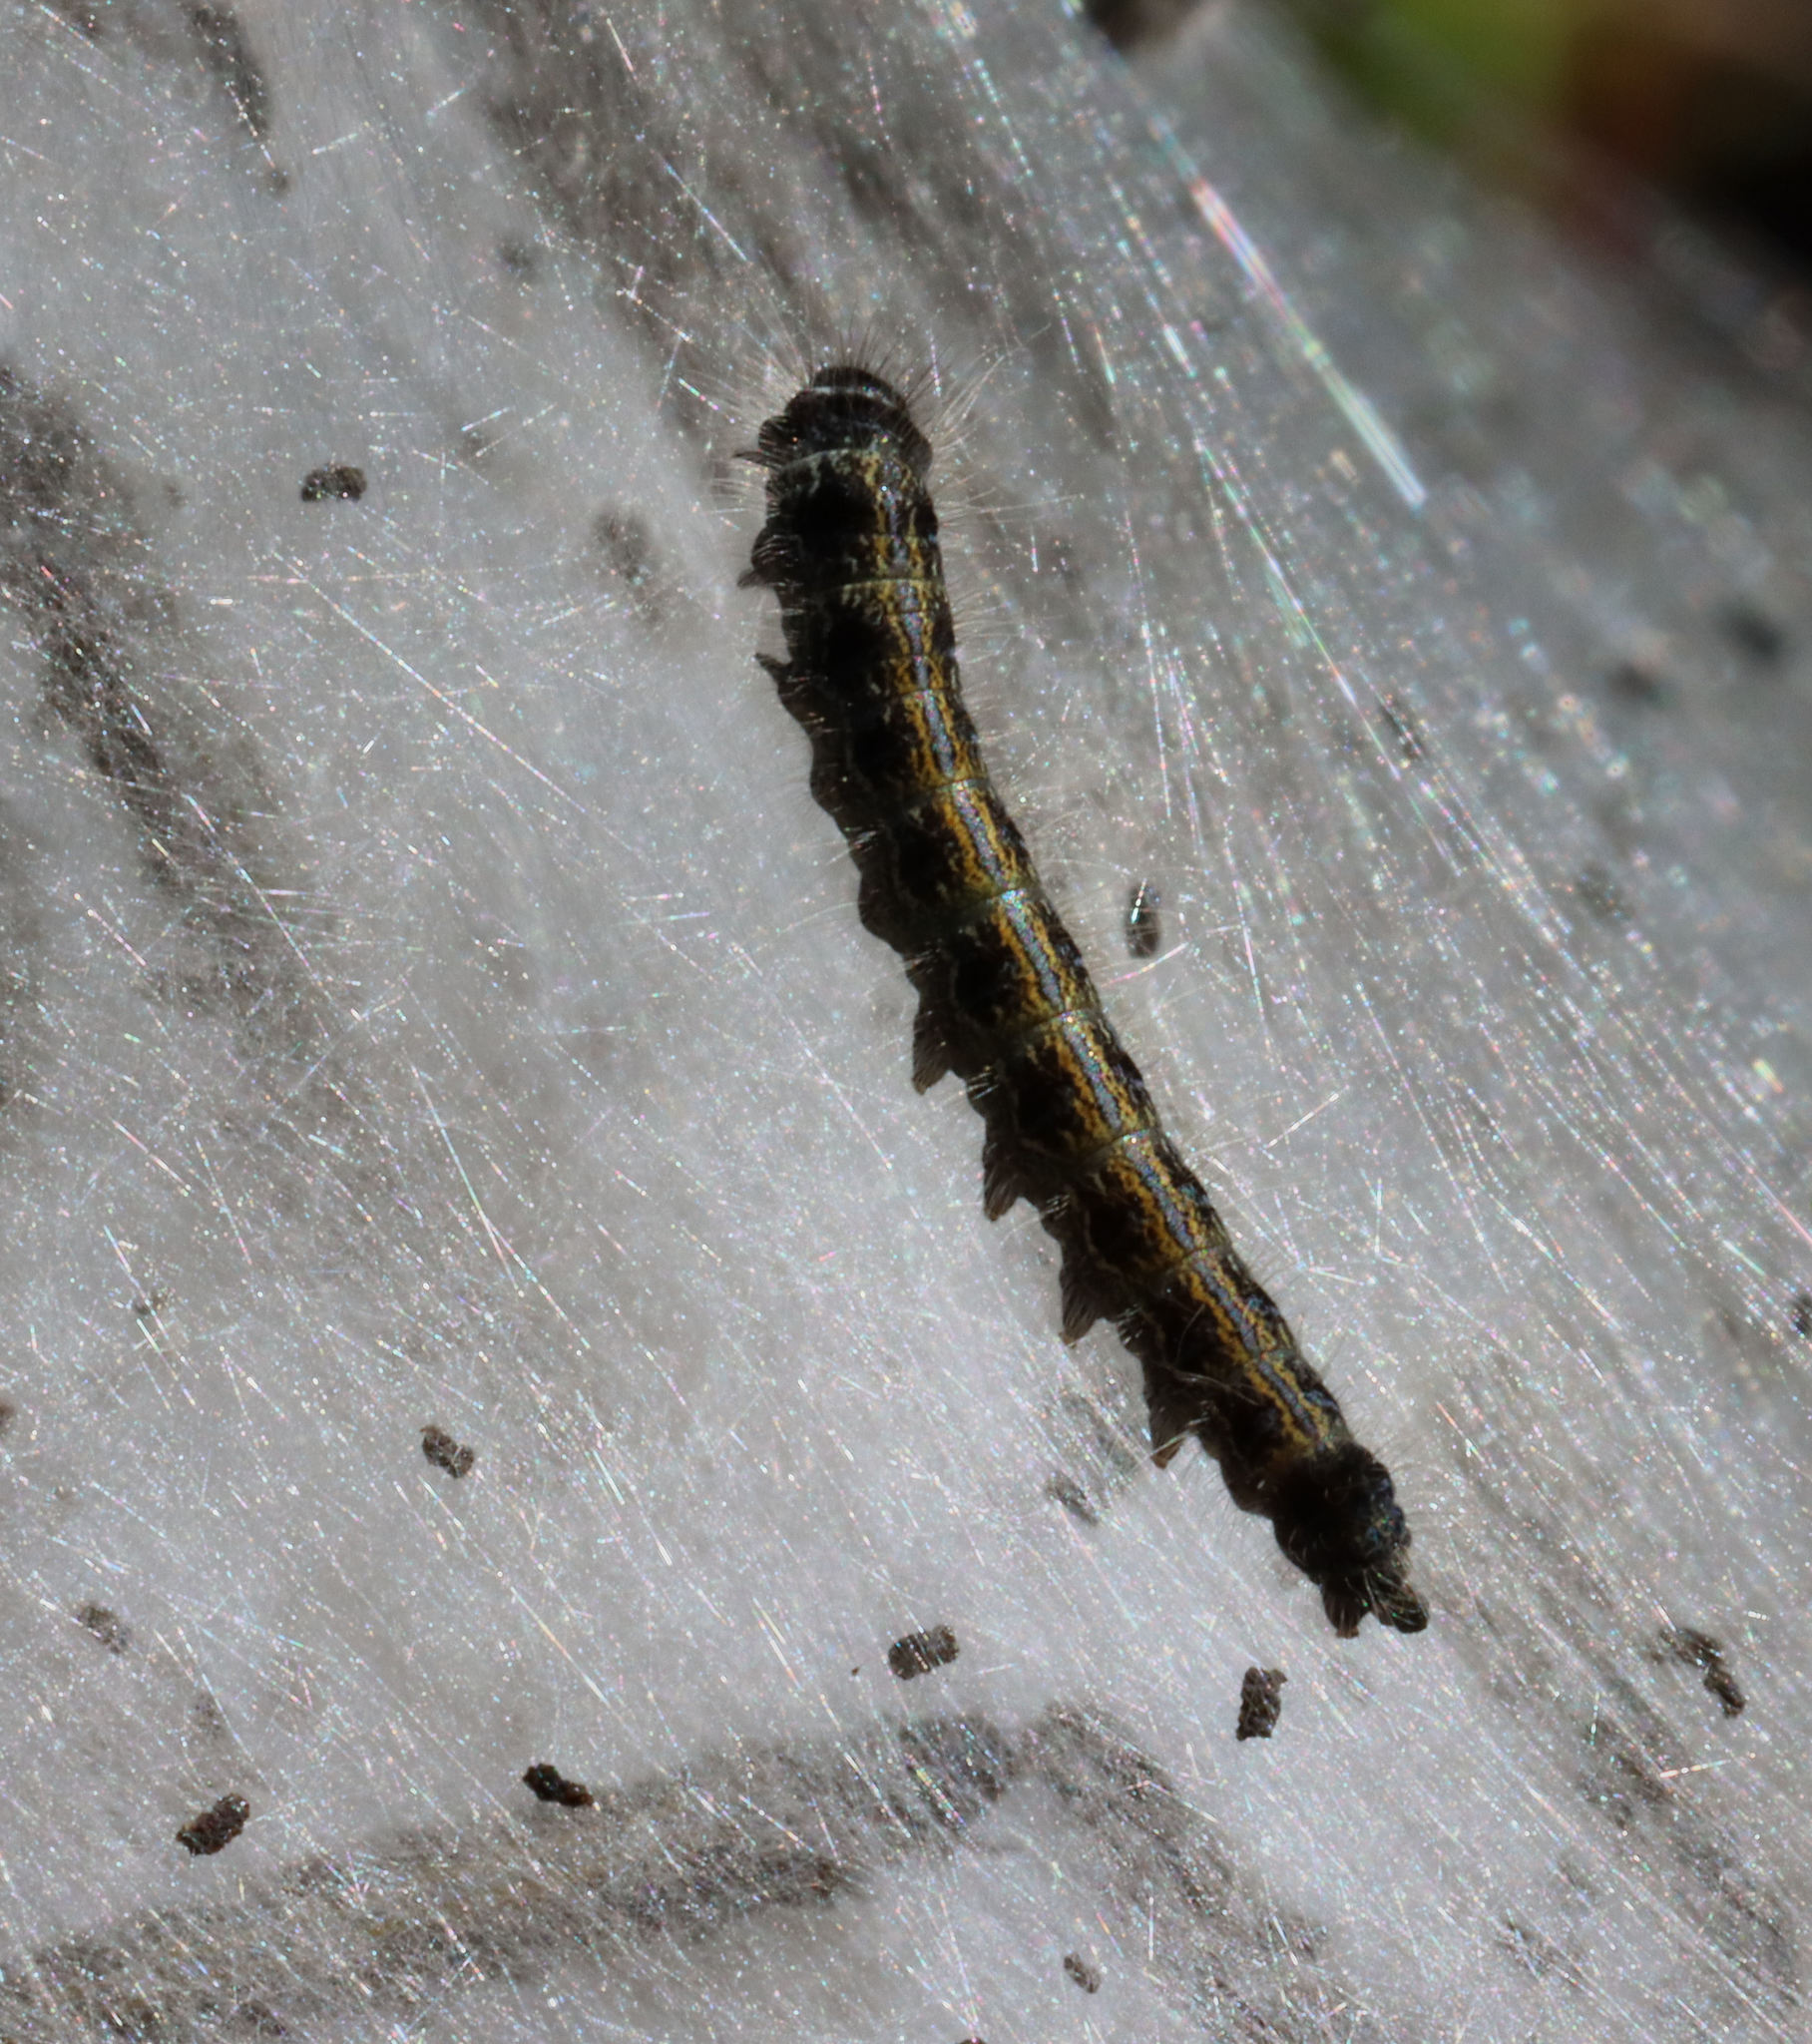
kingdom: Animalia
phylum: Arthropoda
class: Insecta
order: Lepidoptera
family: Lasiocampidae
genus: Malacosoma
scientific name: Malacosoma americana
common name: Eastern tent caterpillar moth
